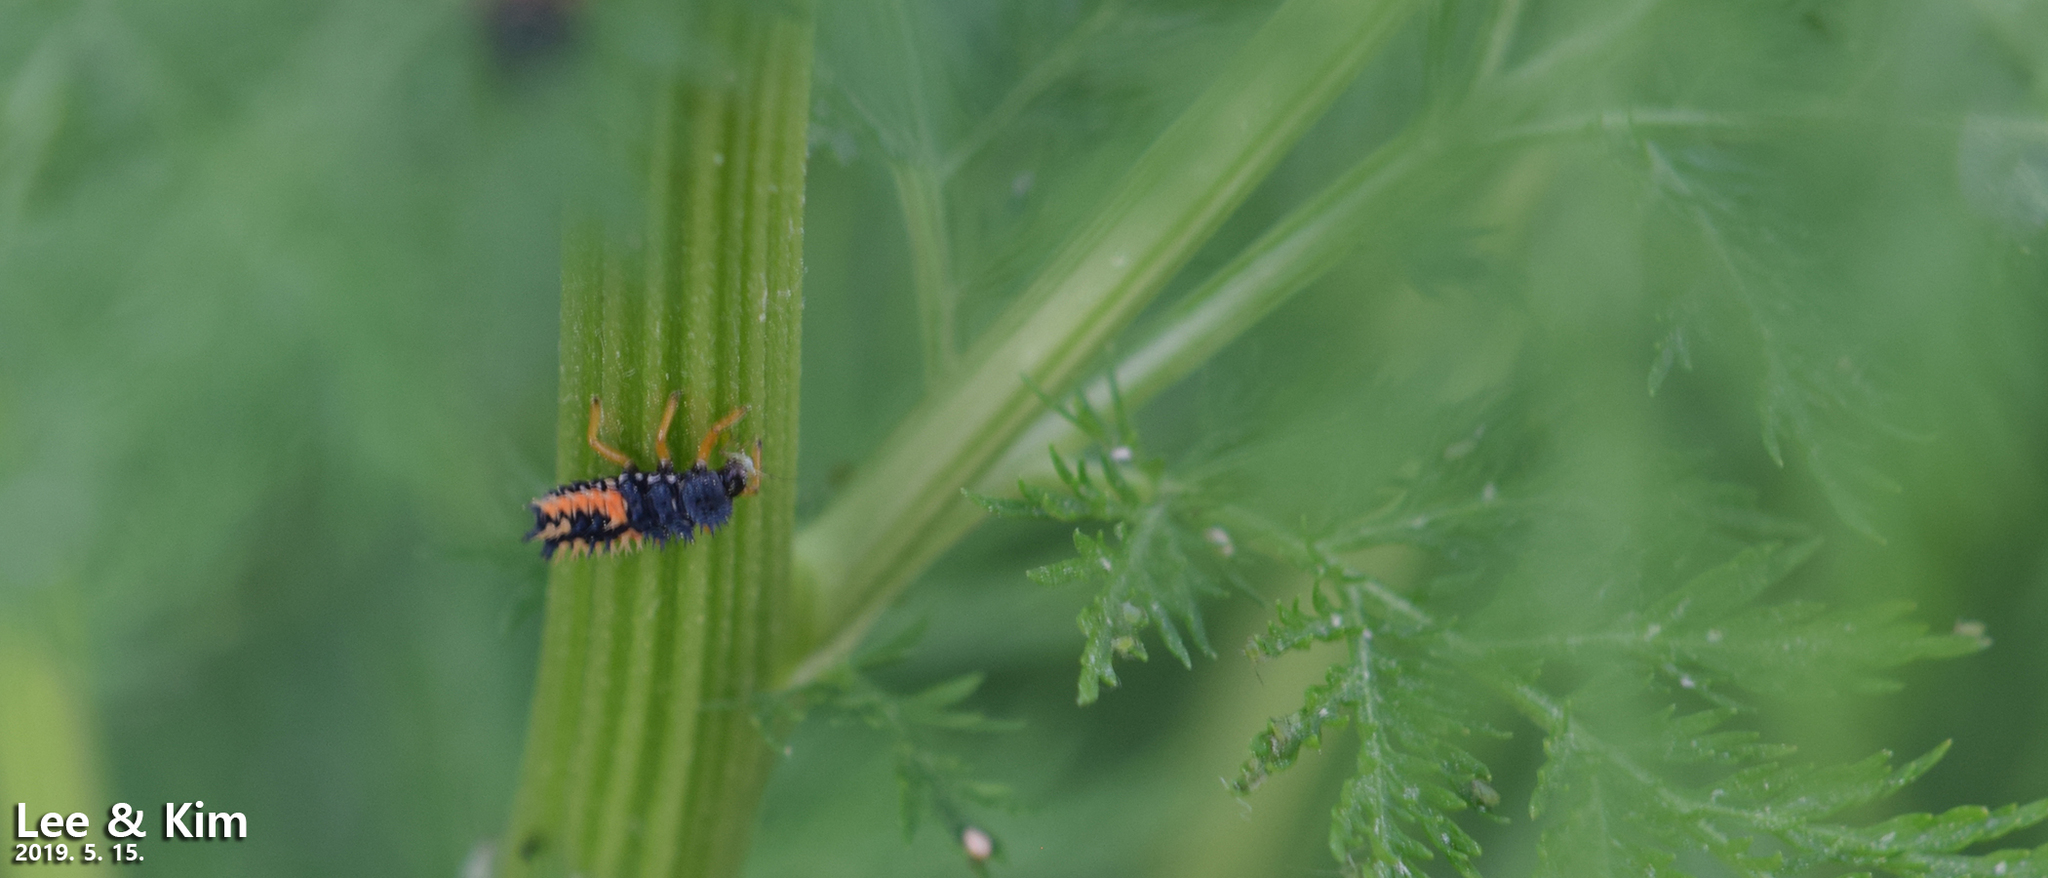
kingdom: Animalia
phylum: Arthropoda
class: Insecta
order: Coleoptera
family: Coccinellidae
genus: Harmonia
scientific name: Harmonia axyridis
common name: Harlequin ladybird
